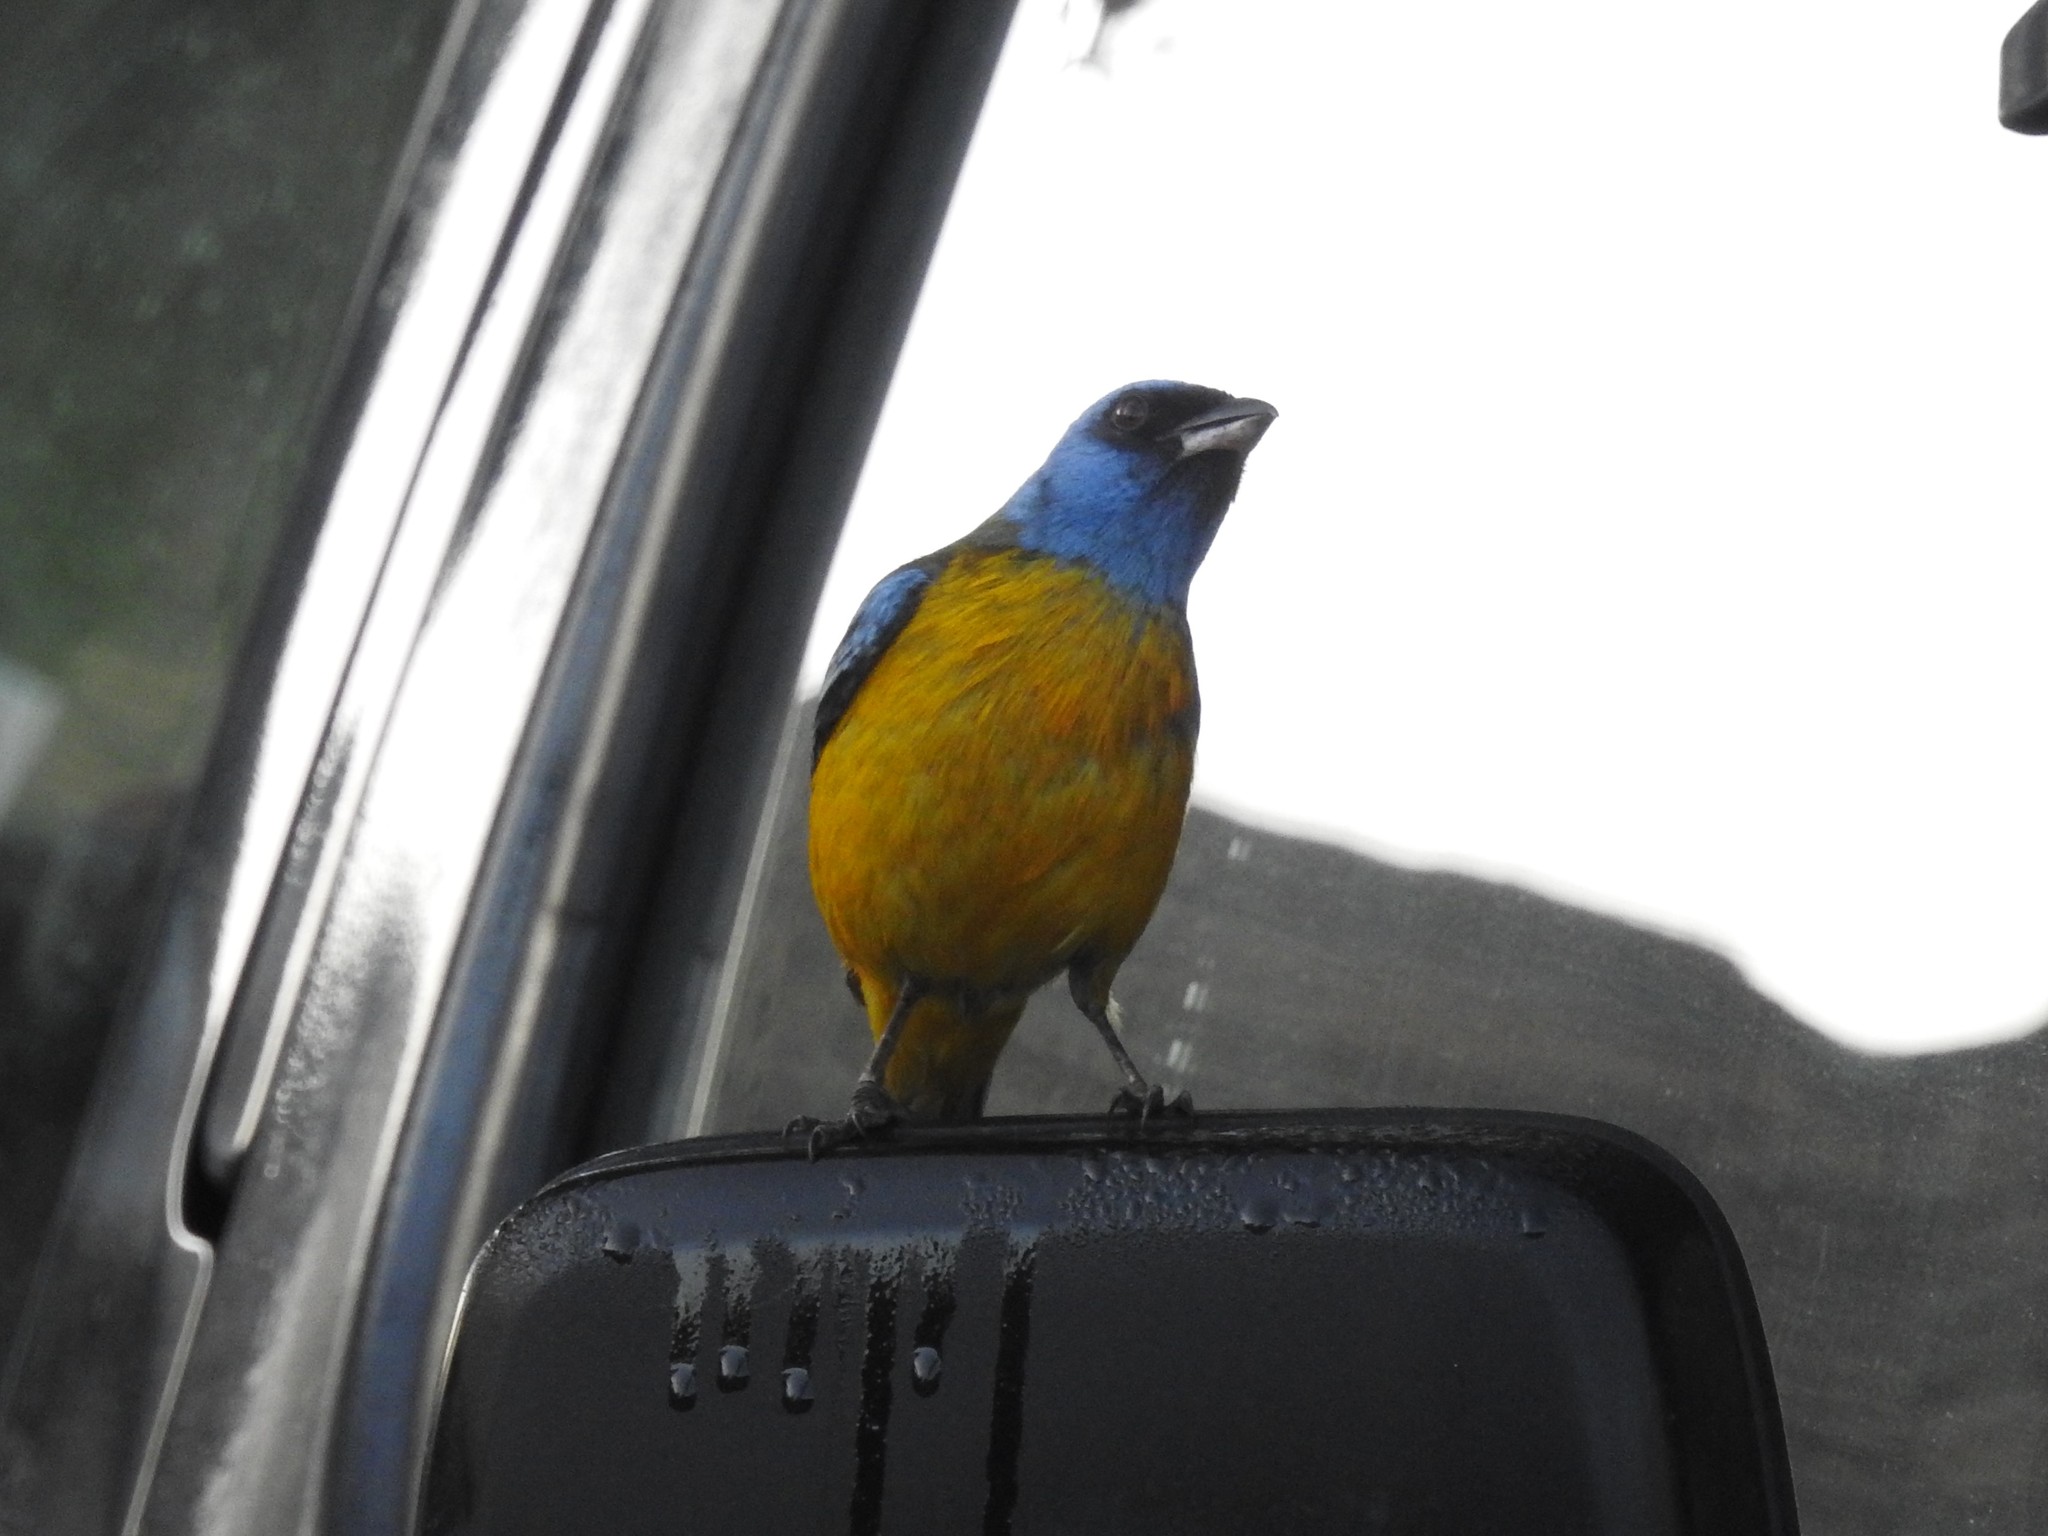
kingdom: Animalia
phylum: Chordata
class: Aves
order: Passeriformes
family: Thraupidae
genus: Rauenia
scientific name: Rauenia bonariensis
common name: Blue-and-yellow tanager
